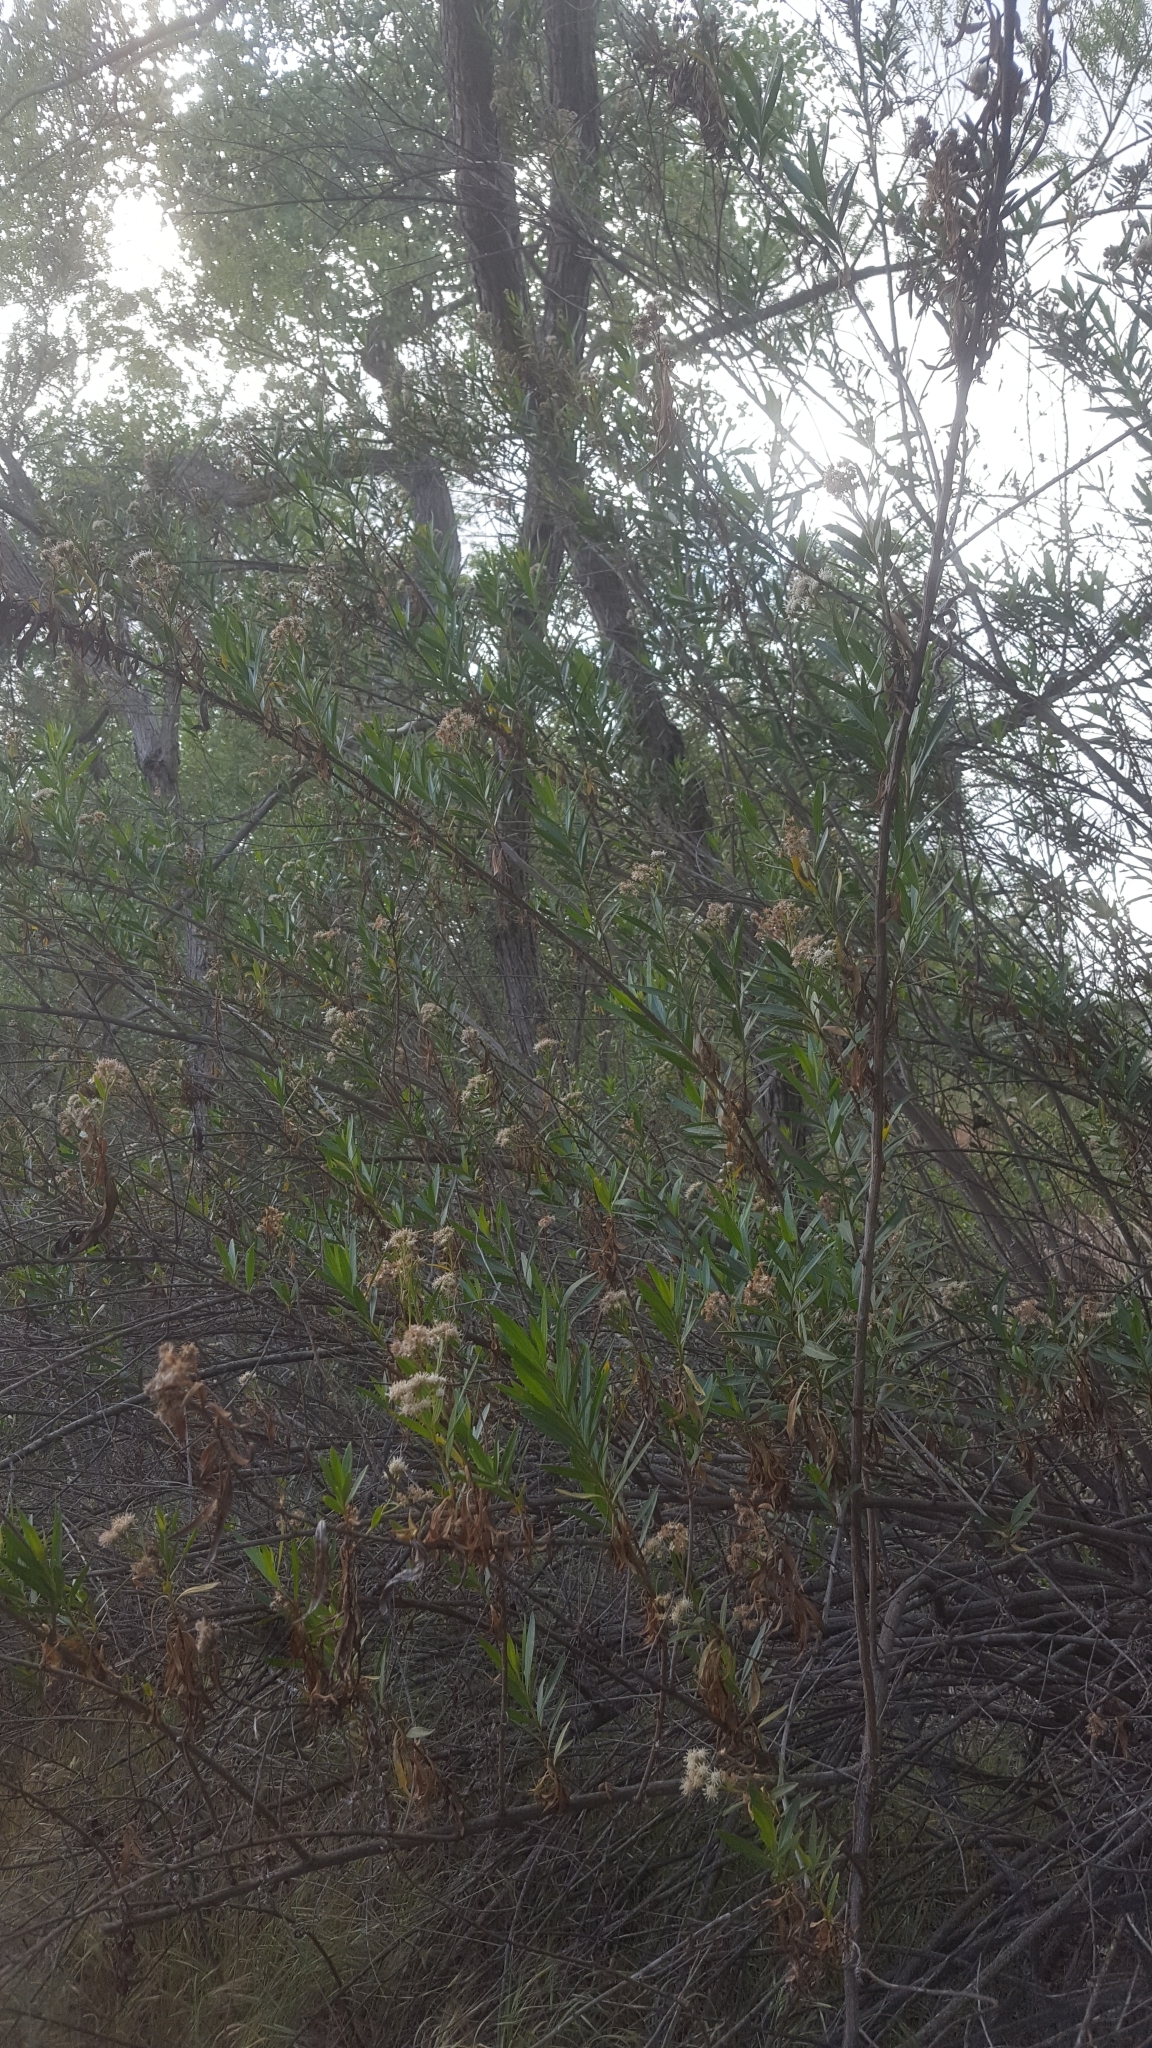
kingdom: Plantae
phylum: Tracheophyta
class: Magnoliopsida
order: Asterales
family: Asteraceae
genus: Baccharis
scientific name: Baccharis salicifolia
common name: Sticky baccharis
